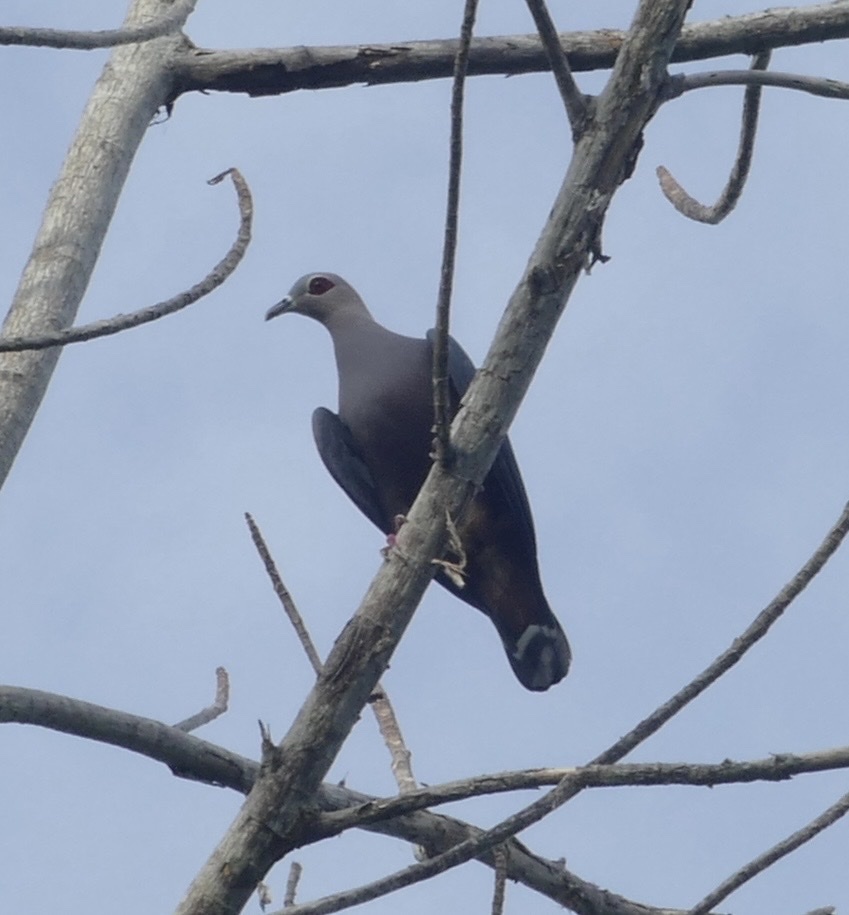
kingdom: Animalia
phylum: Chordata
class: Aves
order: Columbiformes
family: Columbidae
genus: Ducula
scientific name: Ducula pinon
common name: Pinon's imperial pigeon
